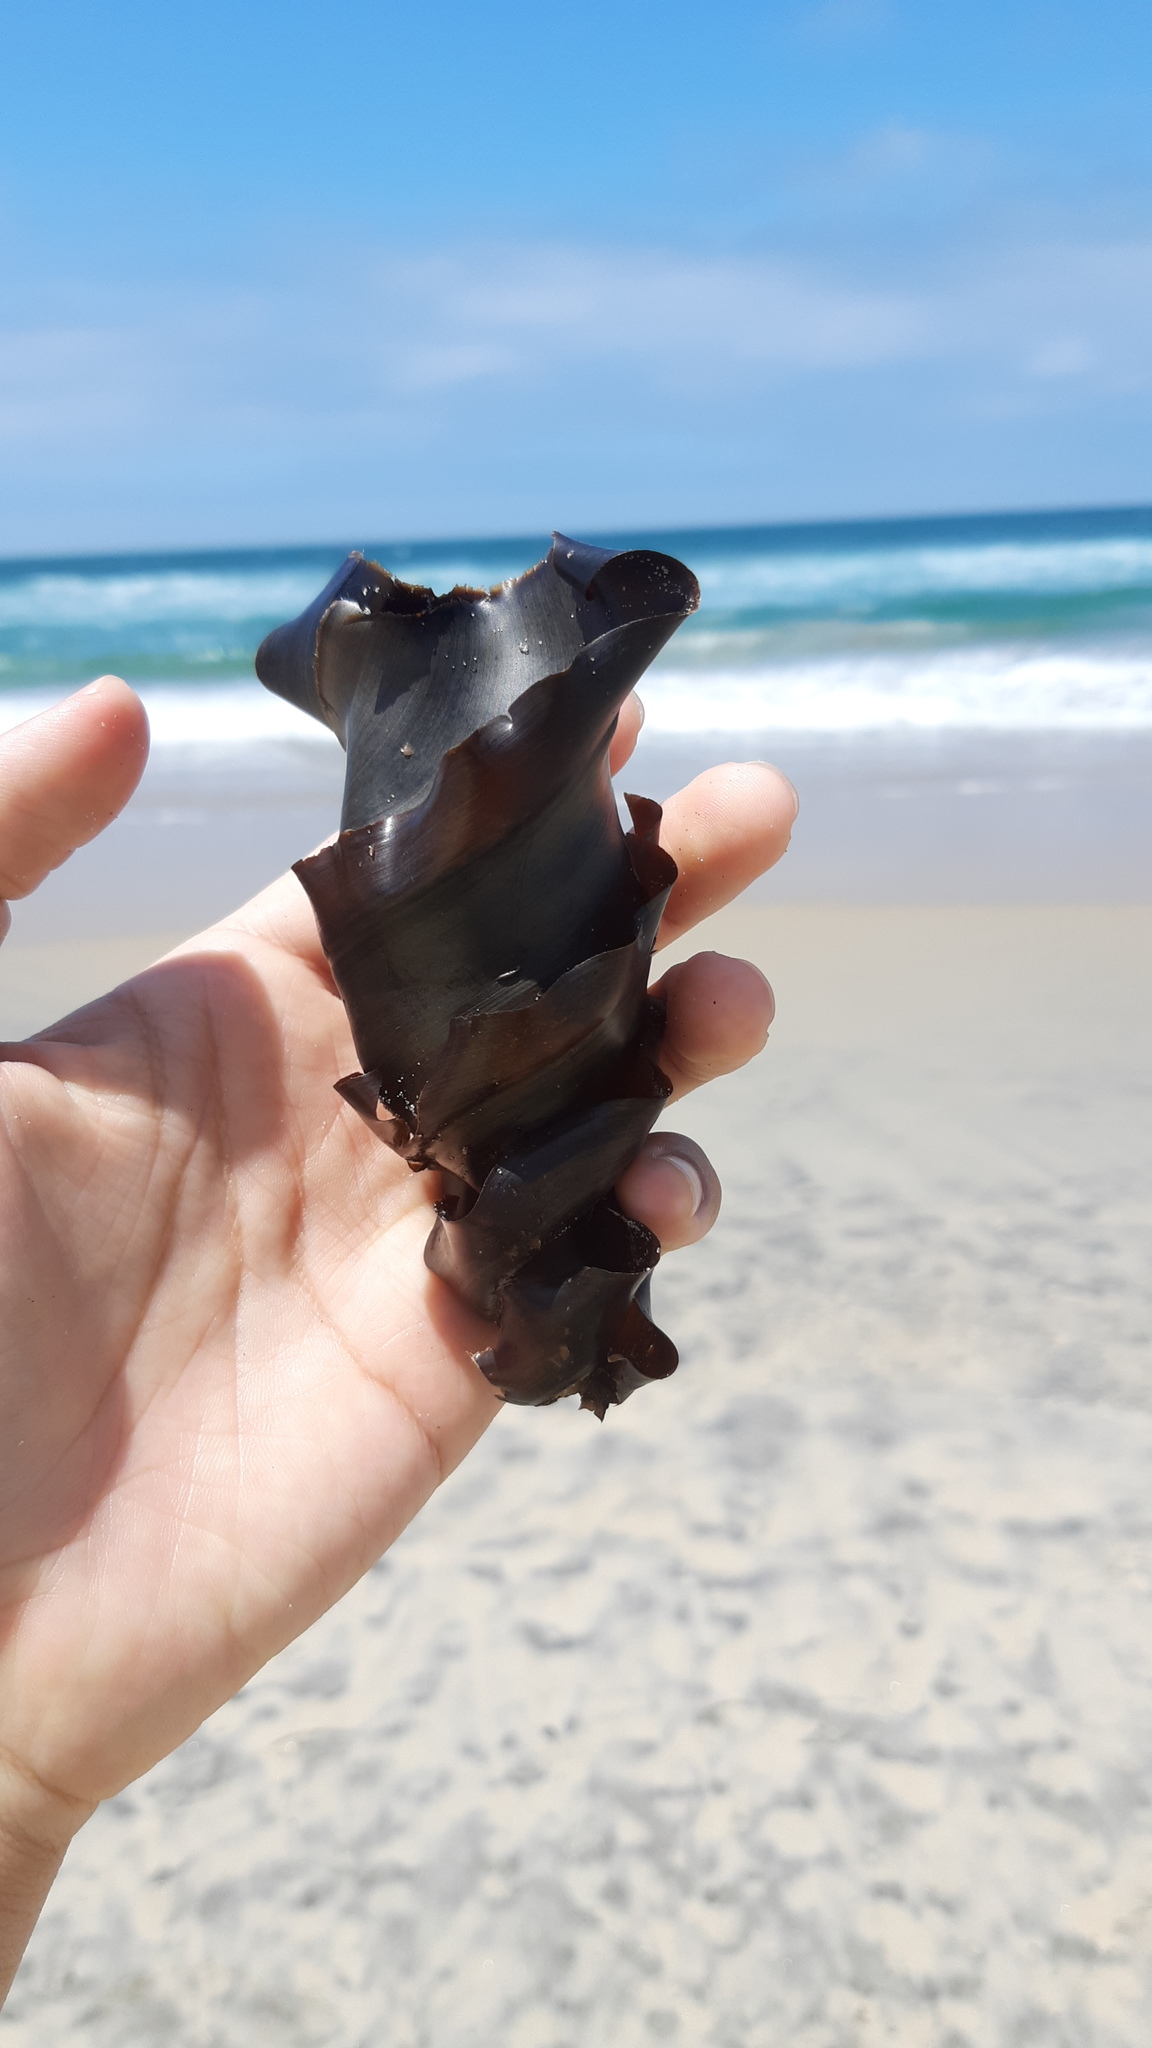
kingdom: Animalia
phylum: Chordata
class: Elasmobranchii
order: Heterodontiformes
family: Heterodontidae
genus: Heterodontus
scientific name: Heterodontus francisci
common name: Horn shark
